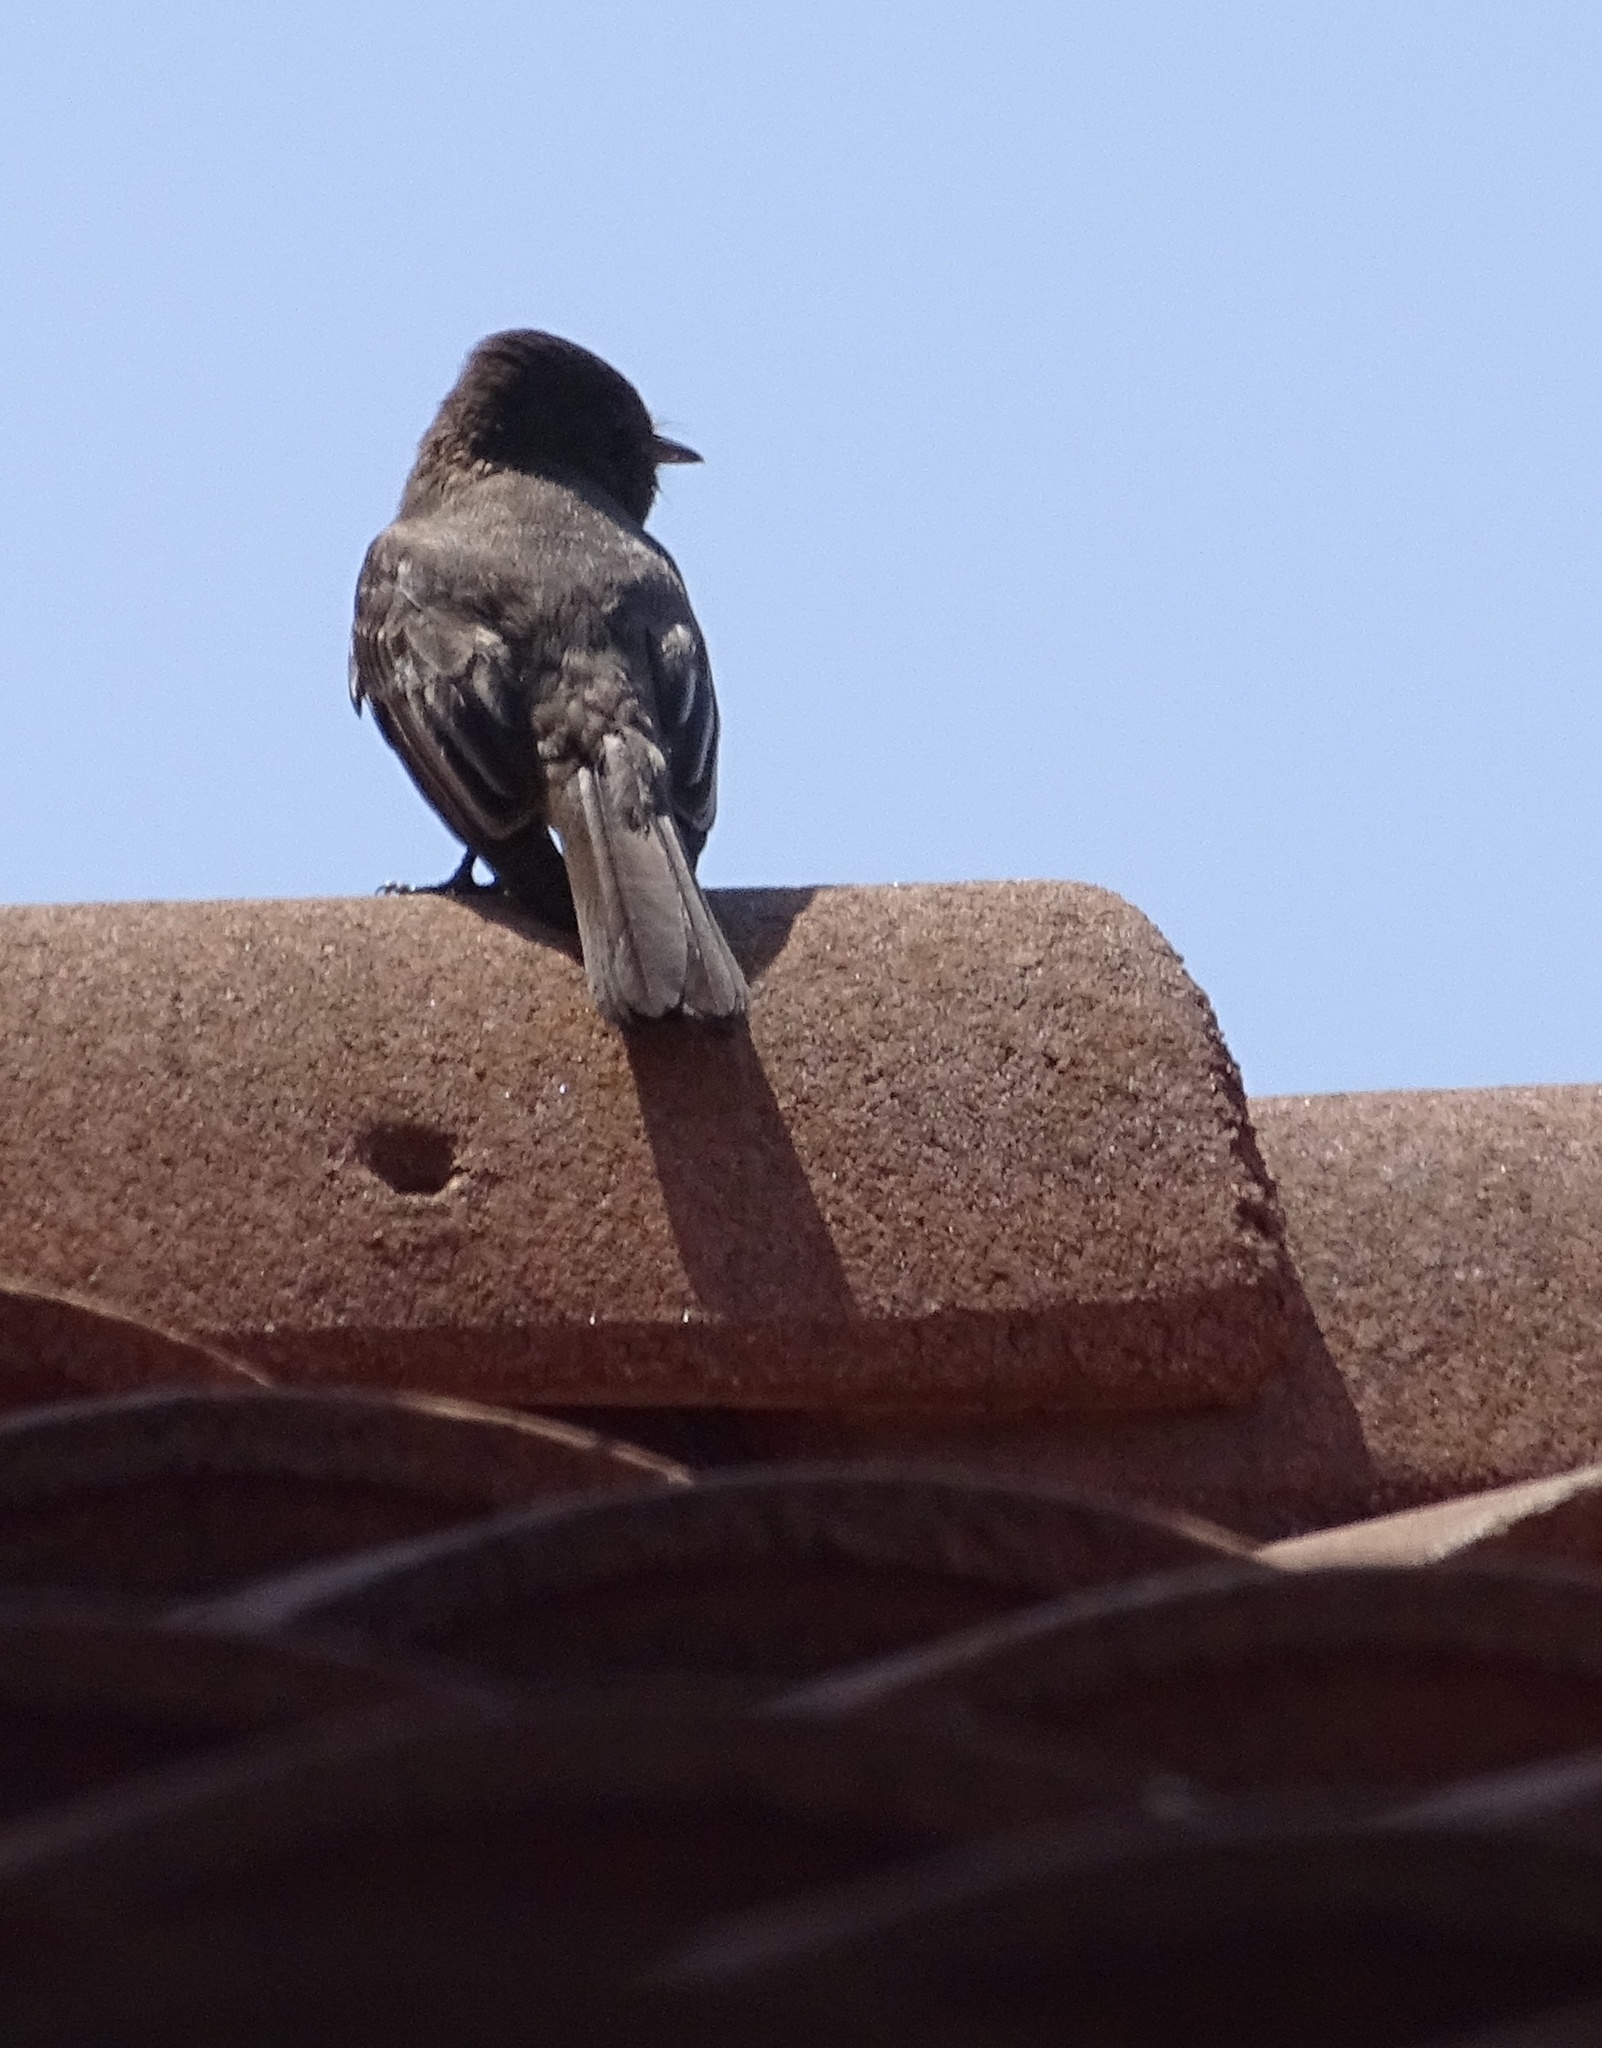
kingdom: Animalia
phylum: Chordata
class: Aves
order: Passeriformes
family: Tyrannidae
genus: Sayornis
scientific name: Sayornis nigricans
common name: Black phoebe
